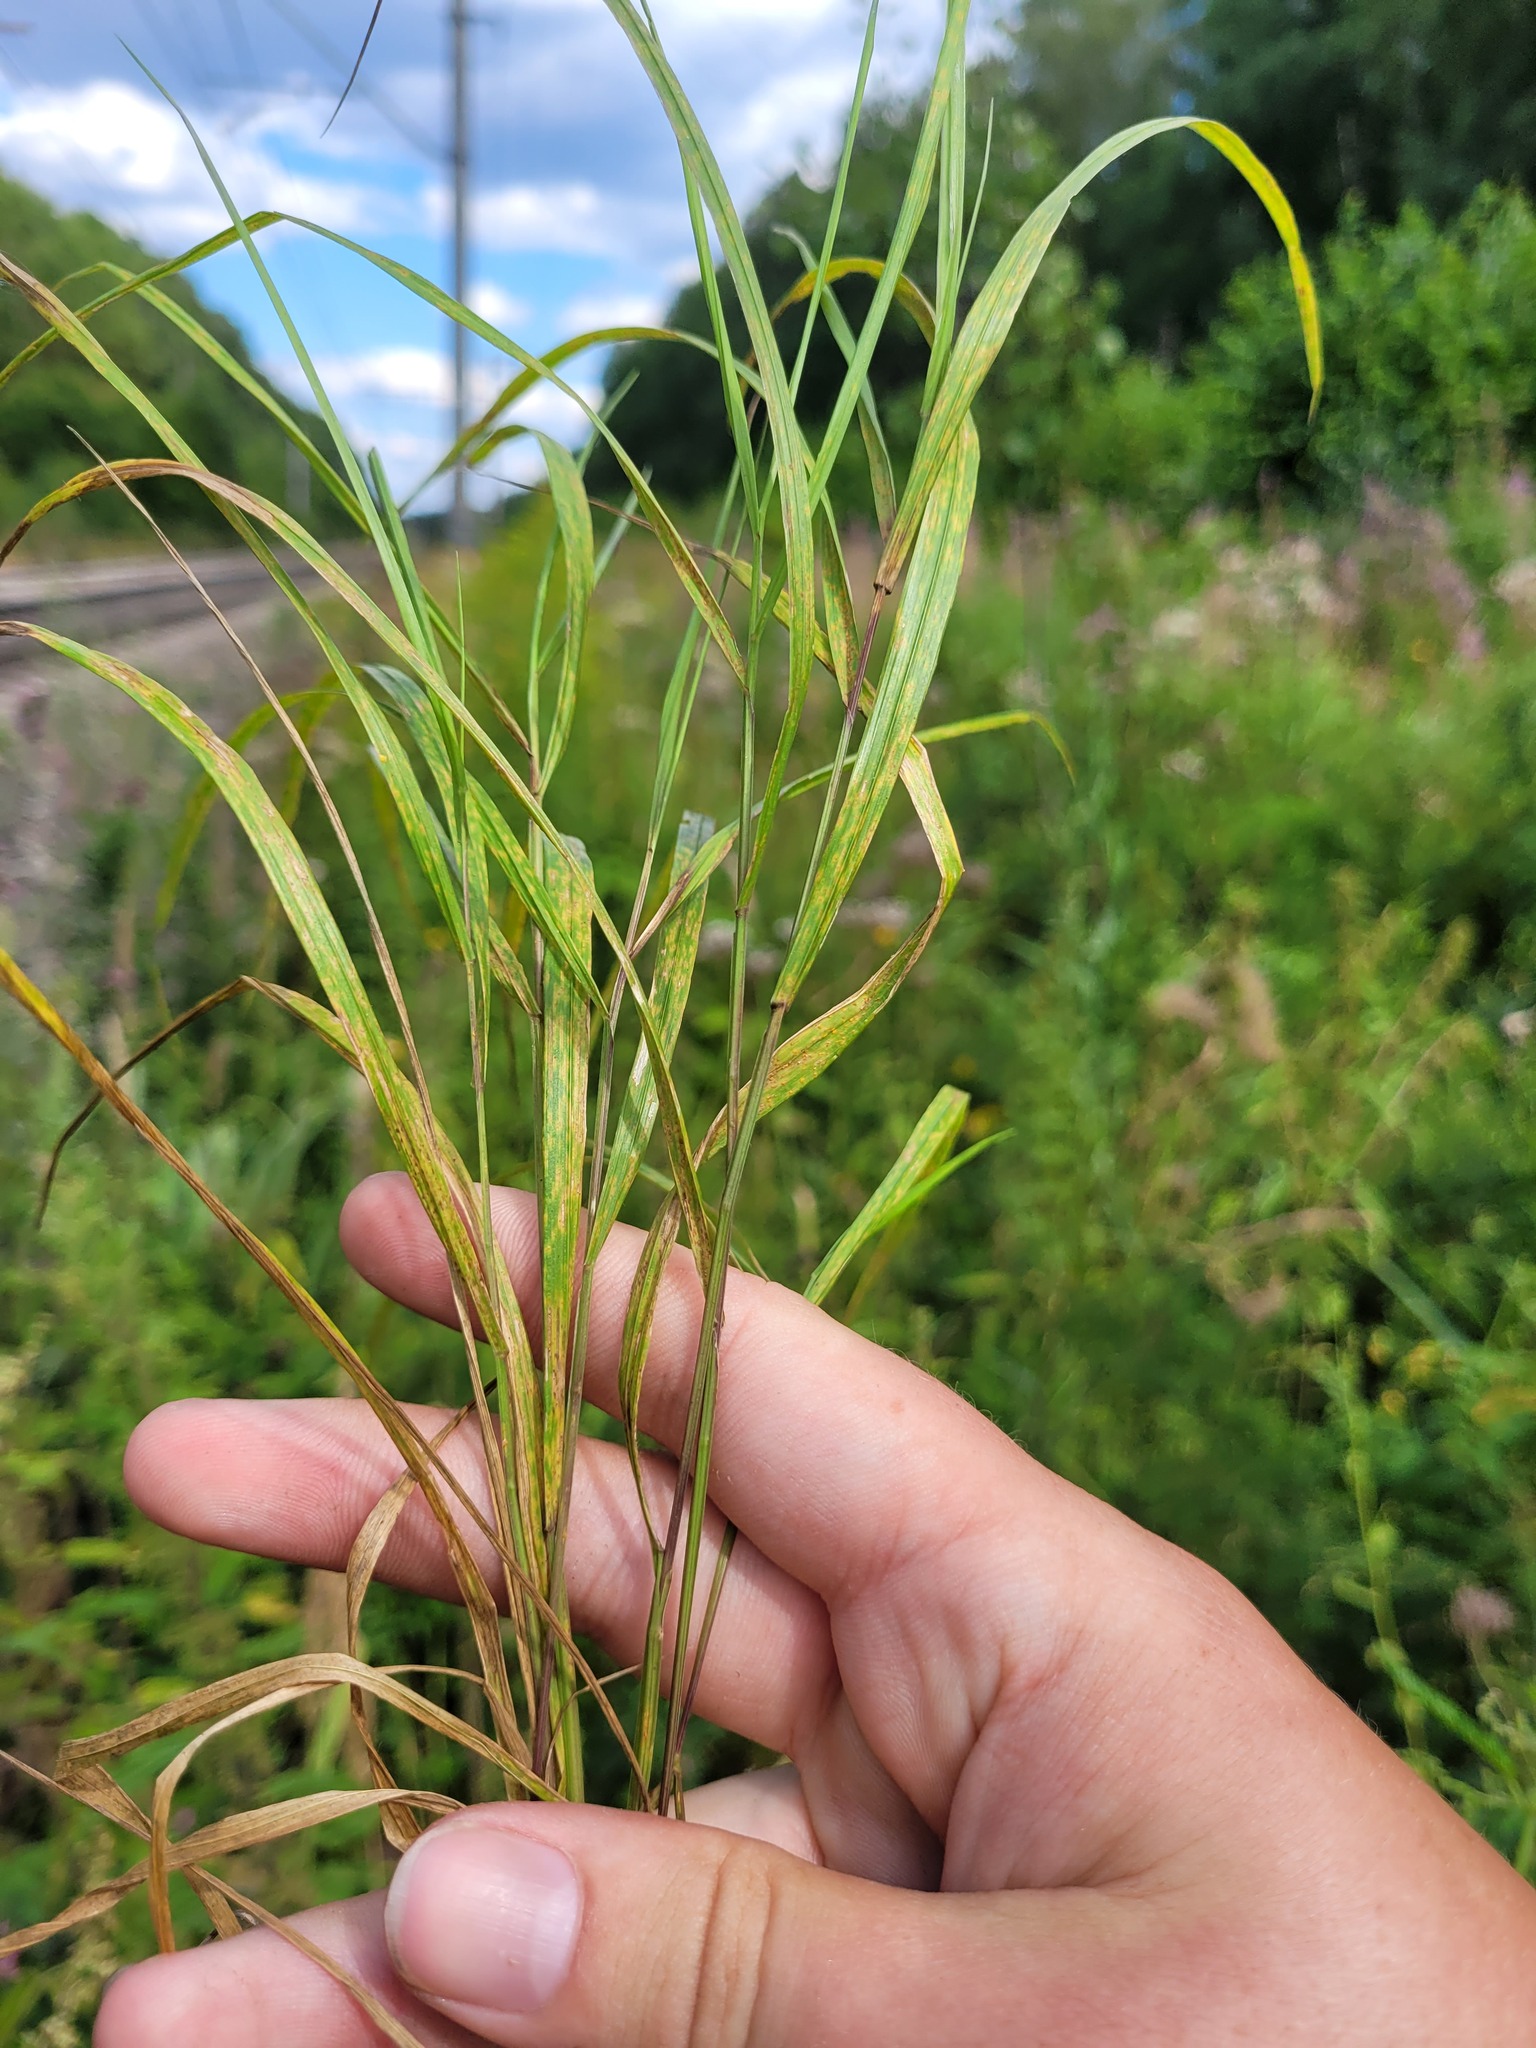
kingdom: Plantae
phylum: Tracheophyta
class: Liliopsida
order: Poales
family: Poaceae
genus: Melica
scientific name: Melica nutans
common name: Mountain melick
